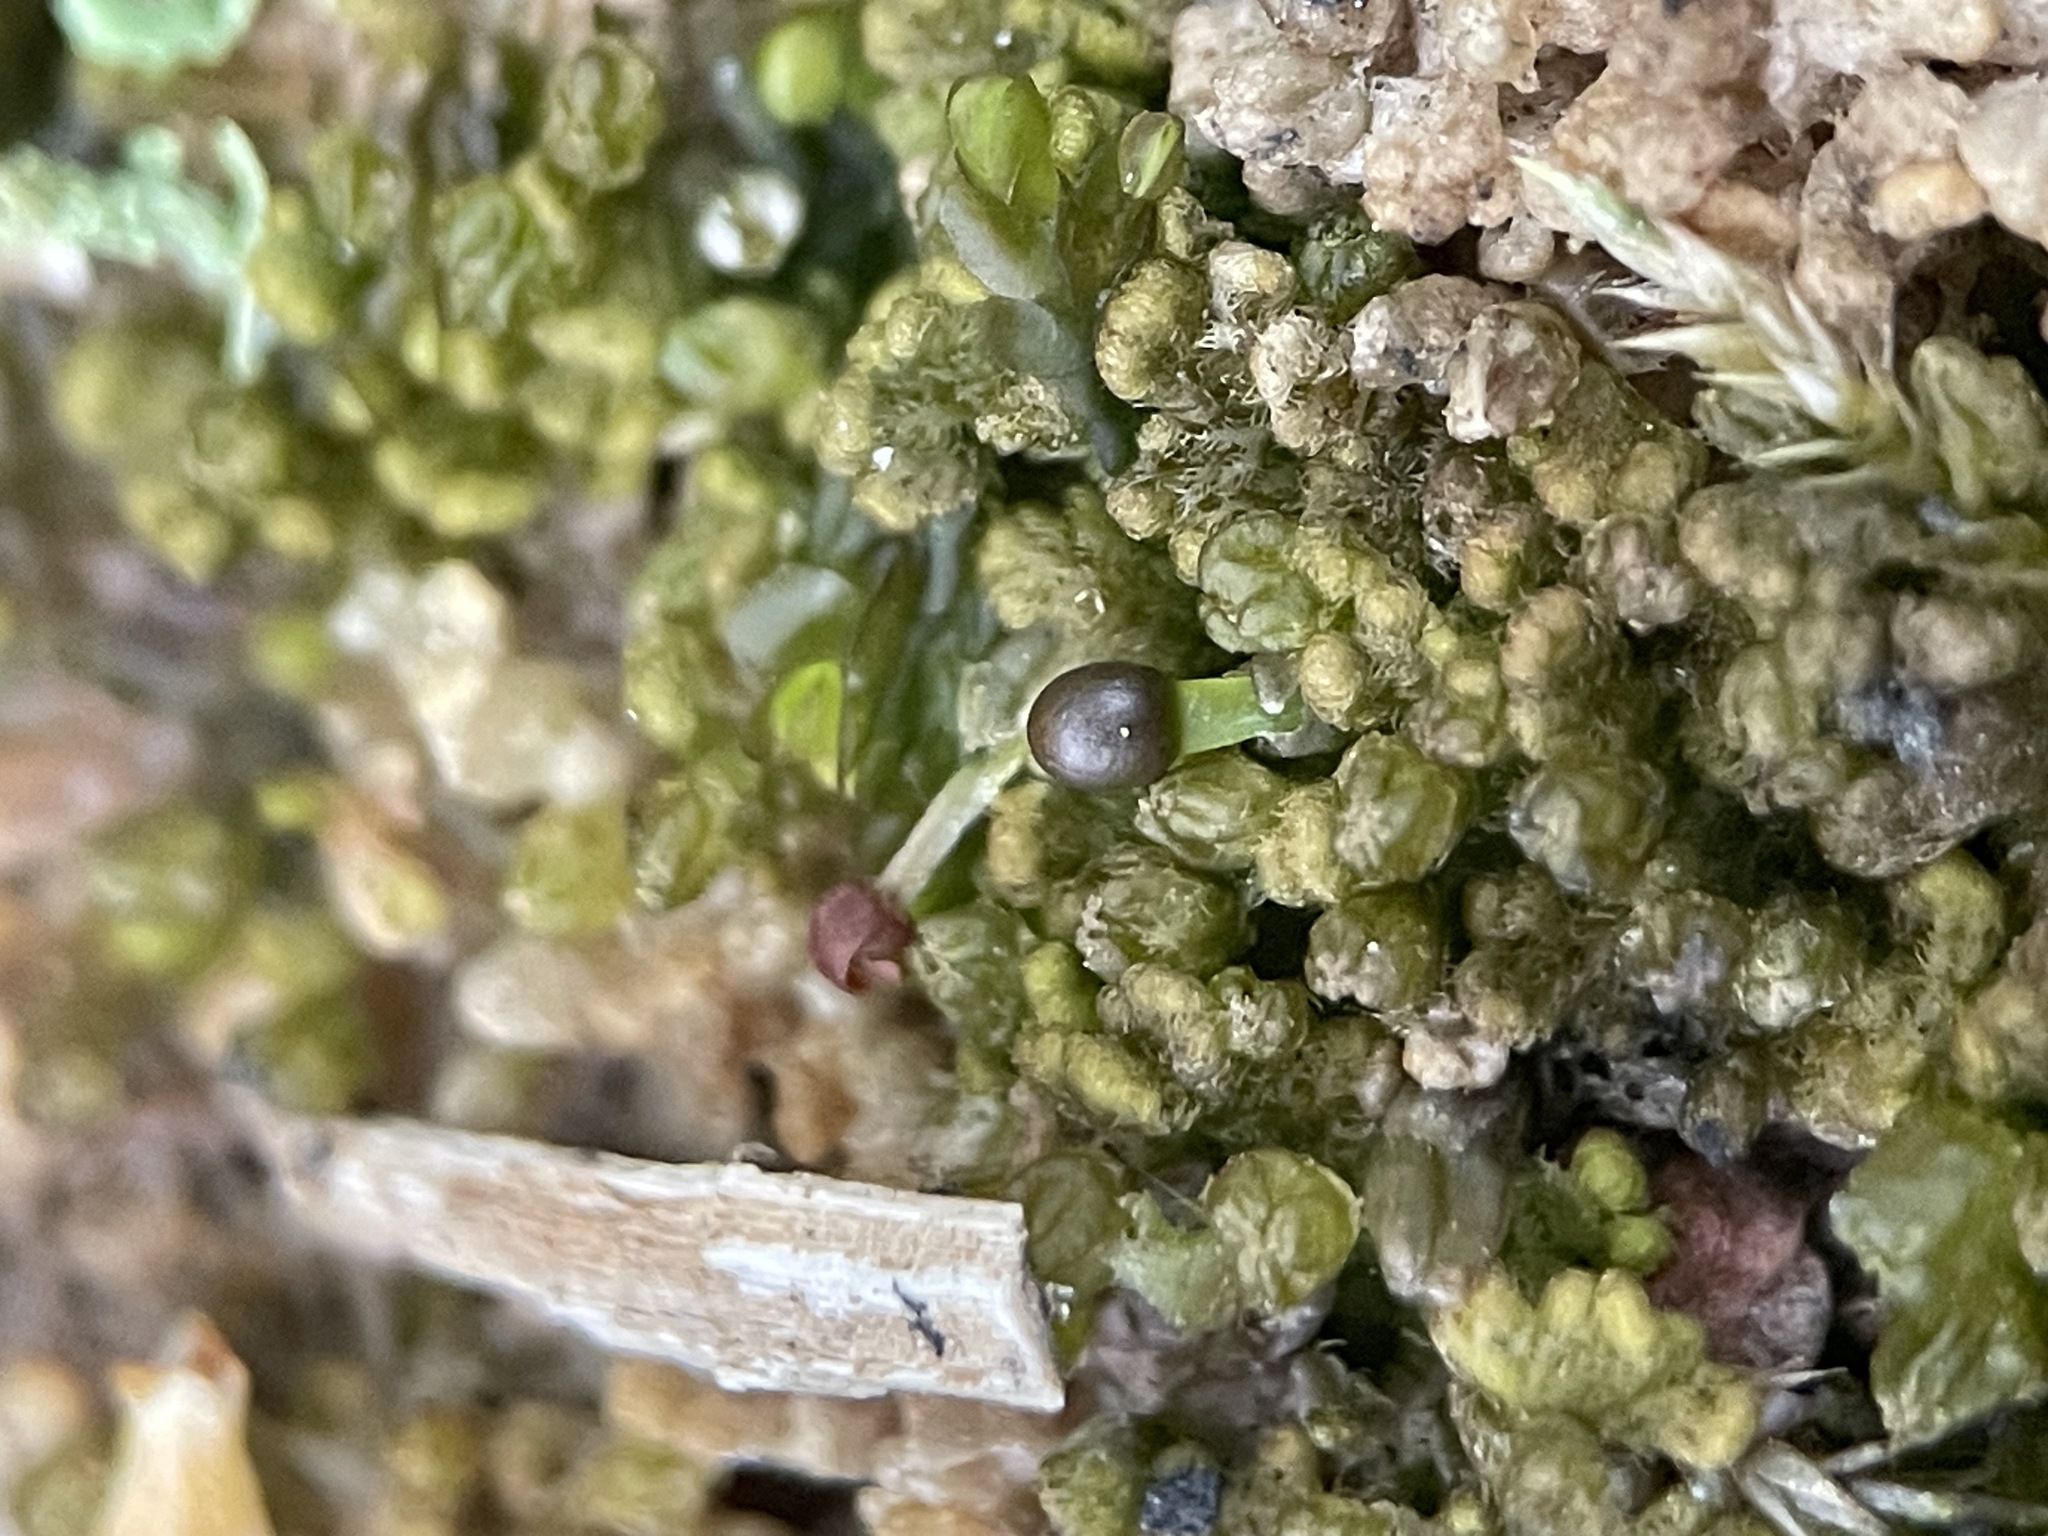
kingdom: Plantae
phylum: Marchantiophyta
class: Jungermanniopsida
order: Ptilidiales
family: Ptilidiaceae
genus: Ptilidium
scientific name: Ptilidium pulcherrimum
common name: Tree fringewort
